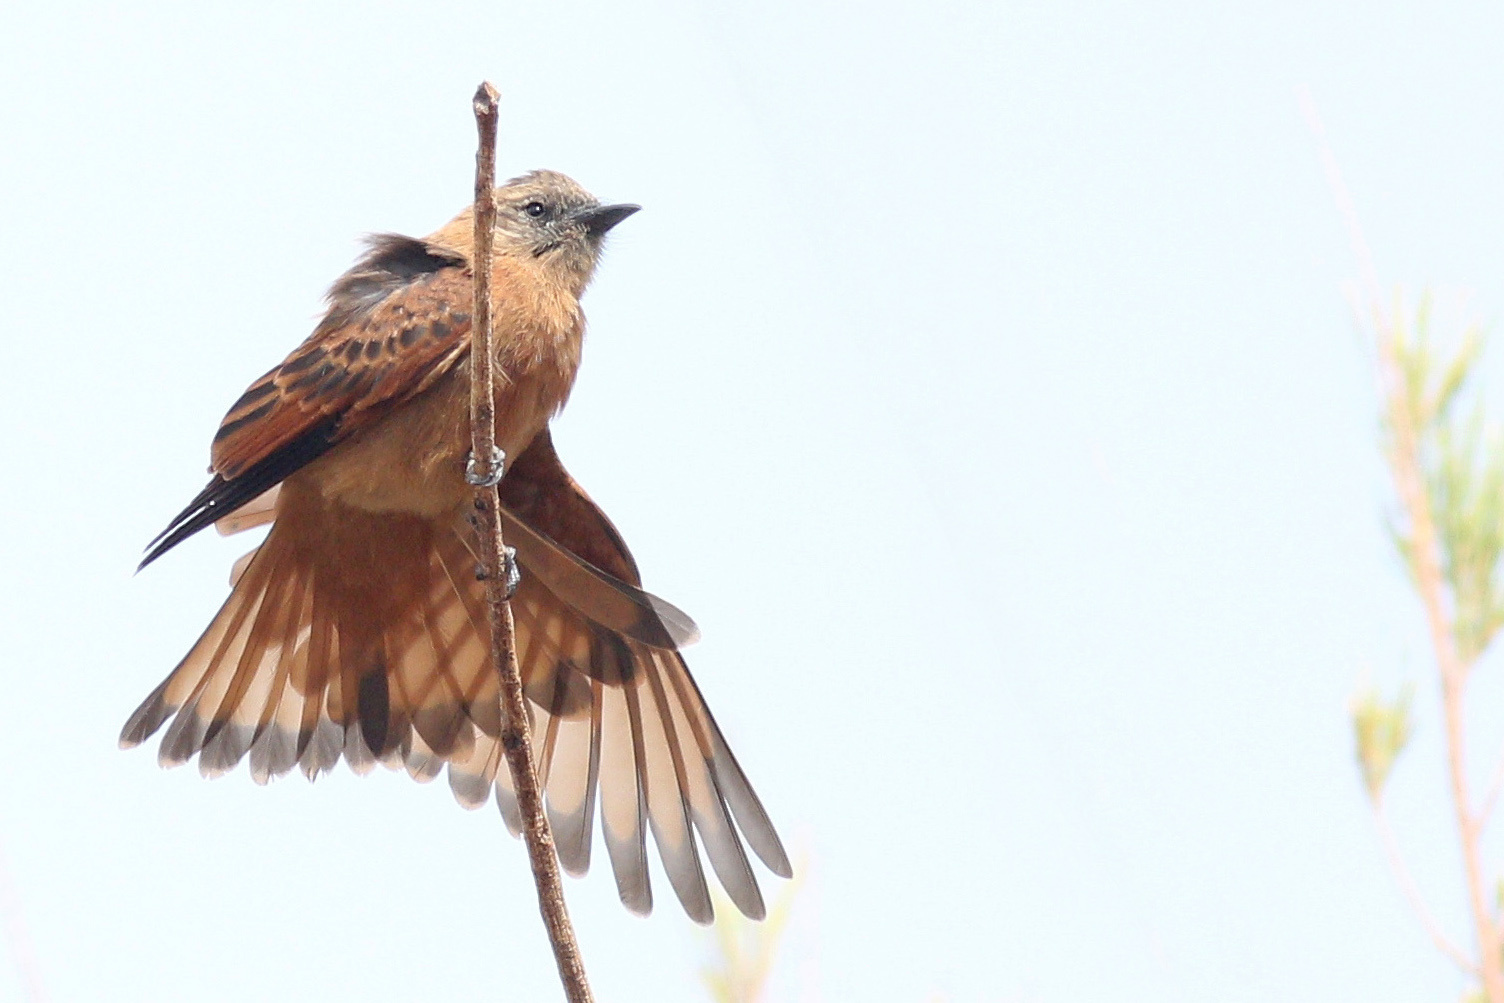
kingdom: Animalia
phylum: Chordata
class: Aves
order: Passeriformes
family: Tyrannidae
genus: Hirundinea
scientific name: Hirundinea ferruginea
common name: Cliff flycatcher
